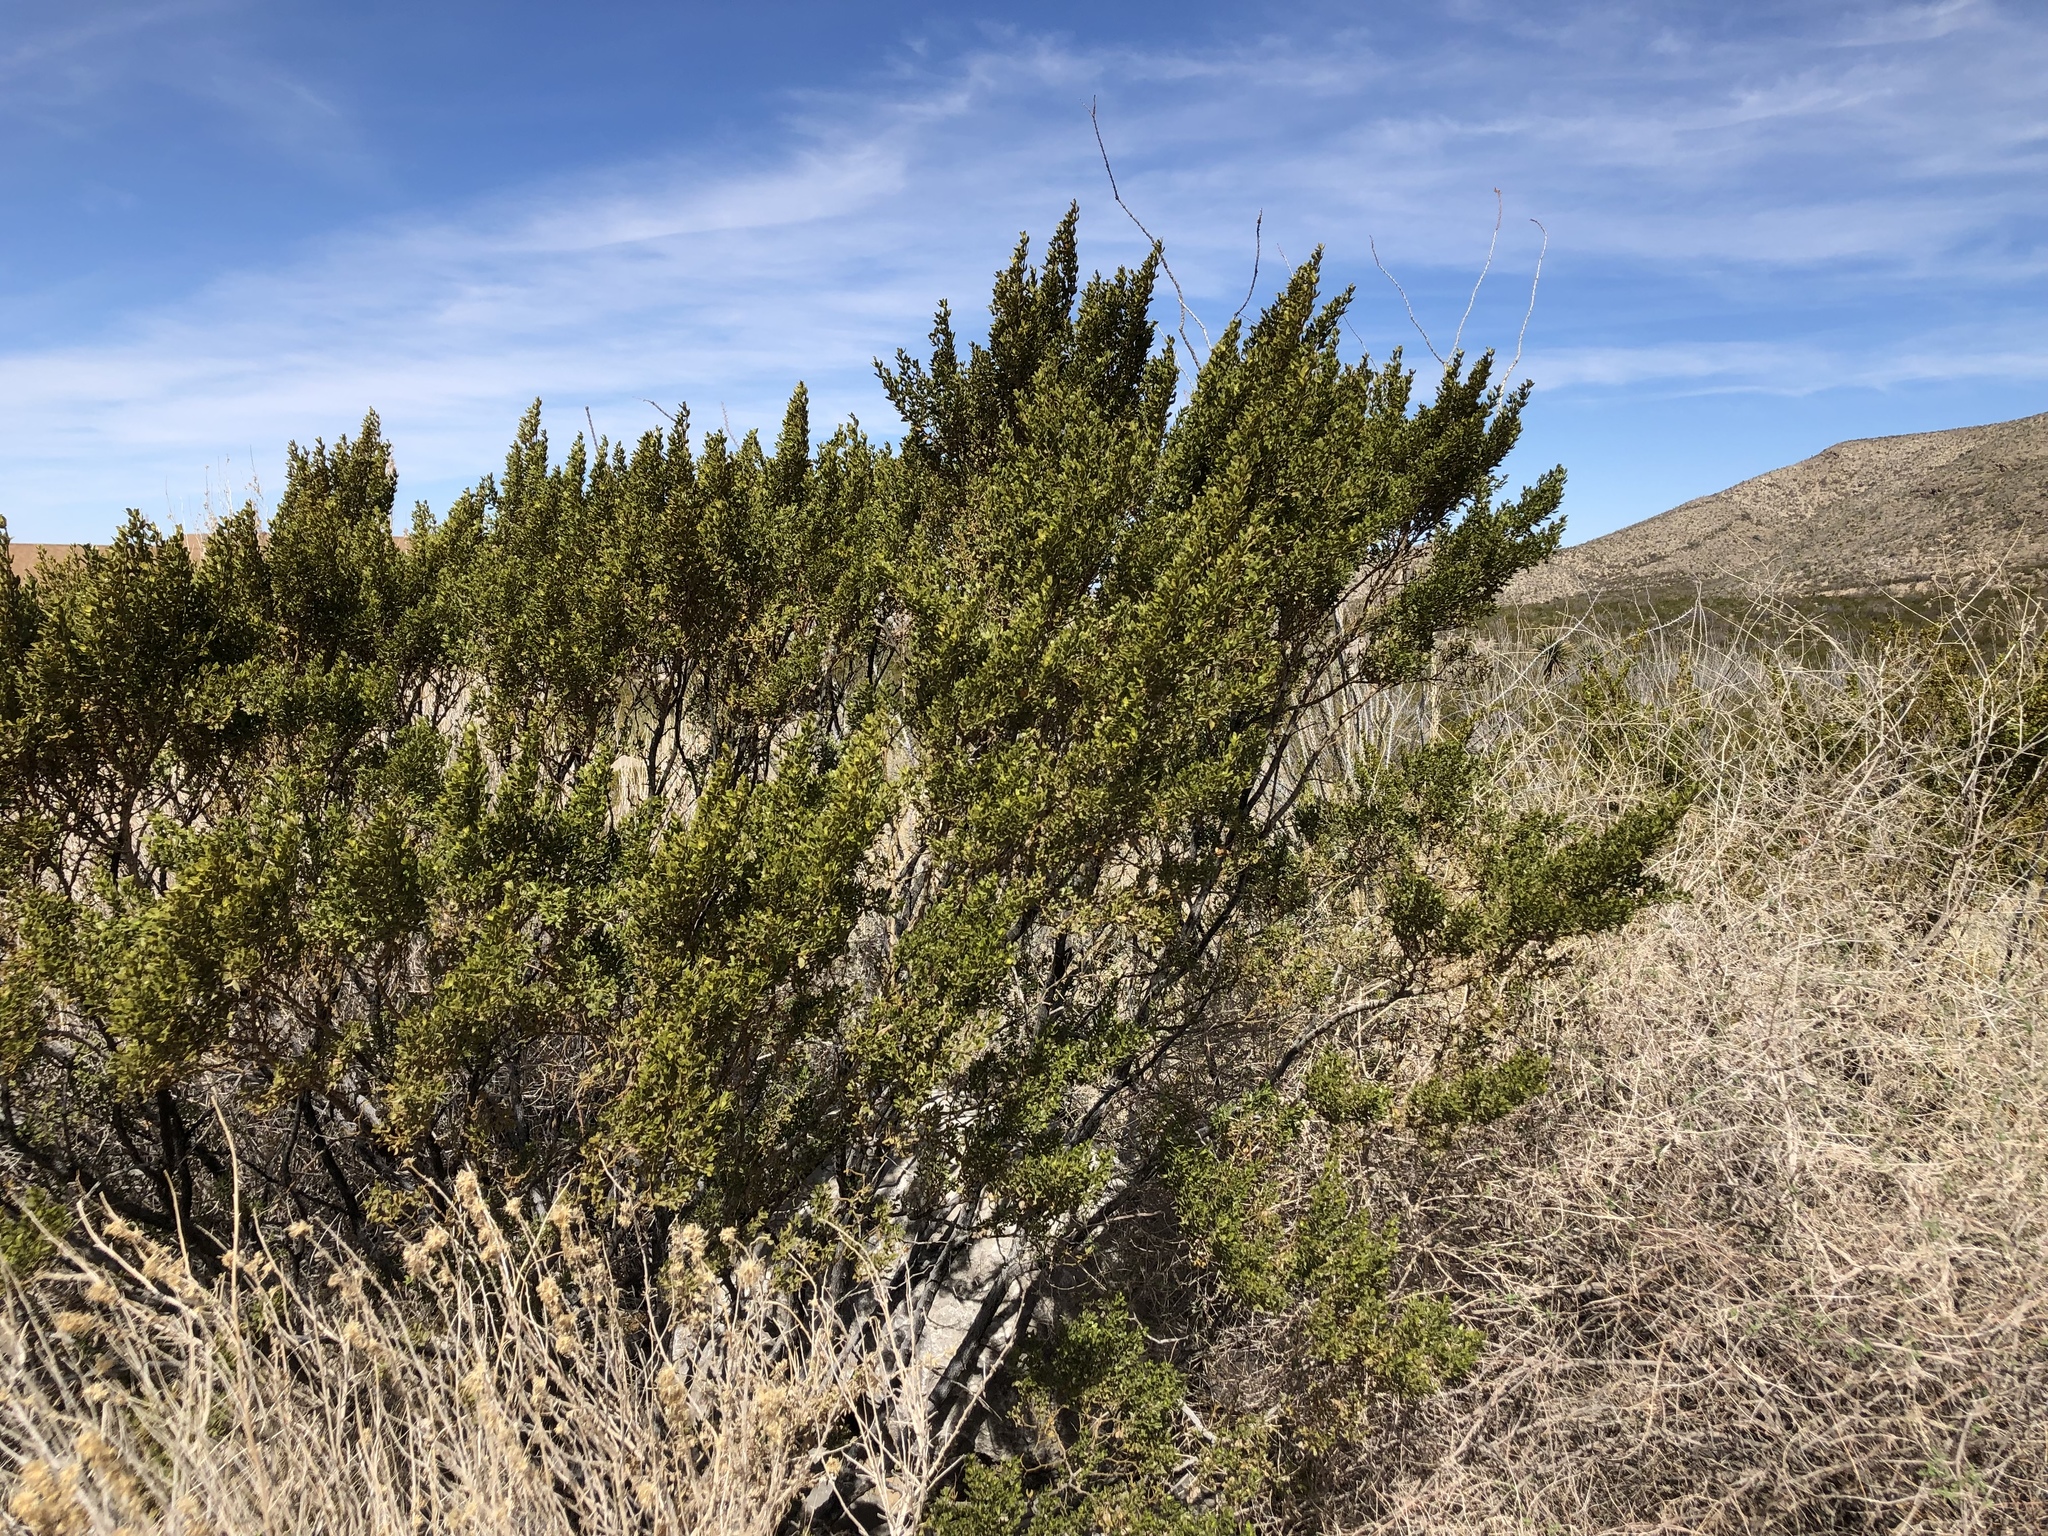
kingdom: Plantae
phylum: Tracheophyta
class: Magnoliopsida
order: Zygophyllales
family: Zygophyllaceae
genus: Larrea
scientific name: Larrea tridentata
